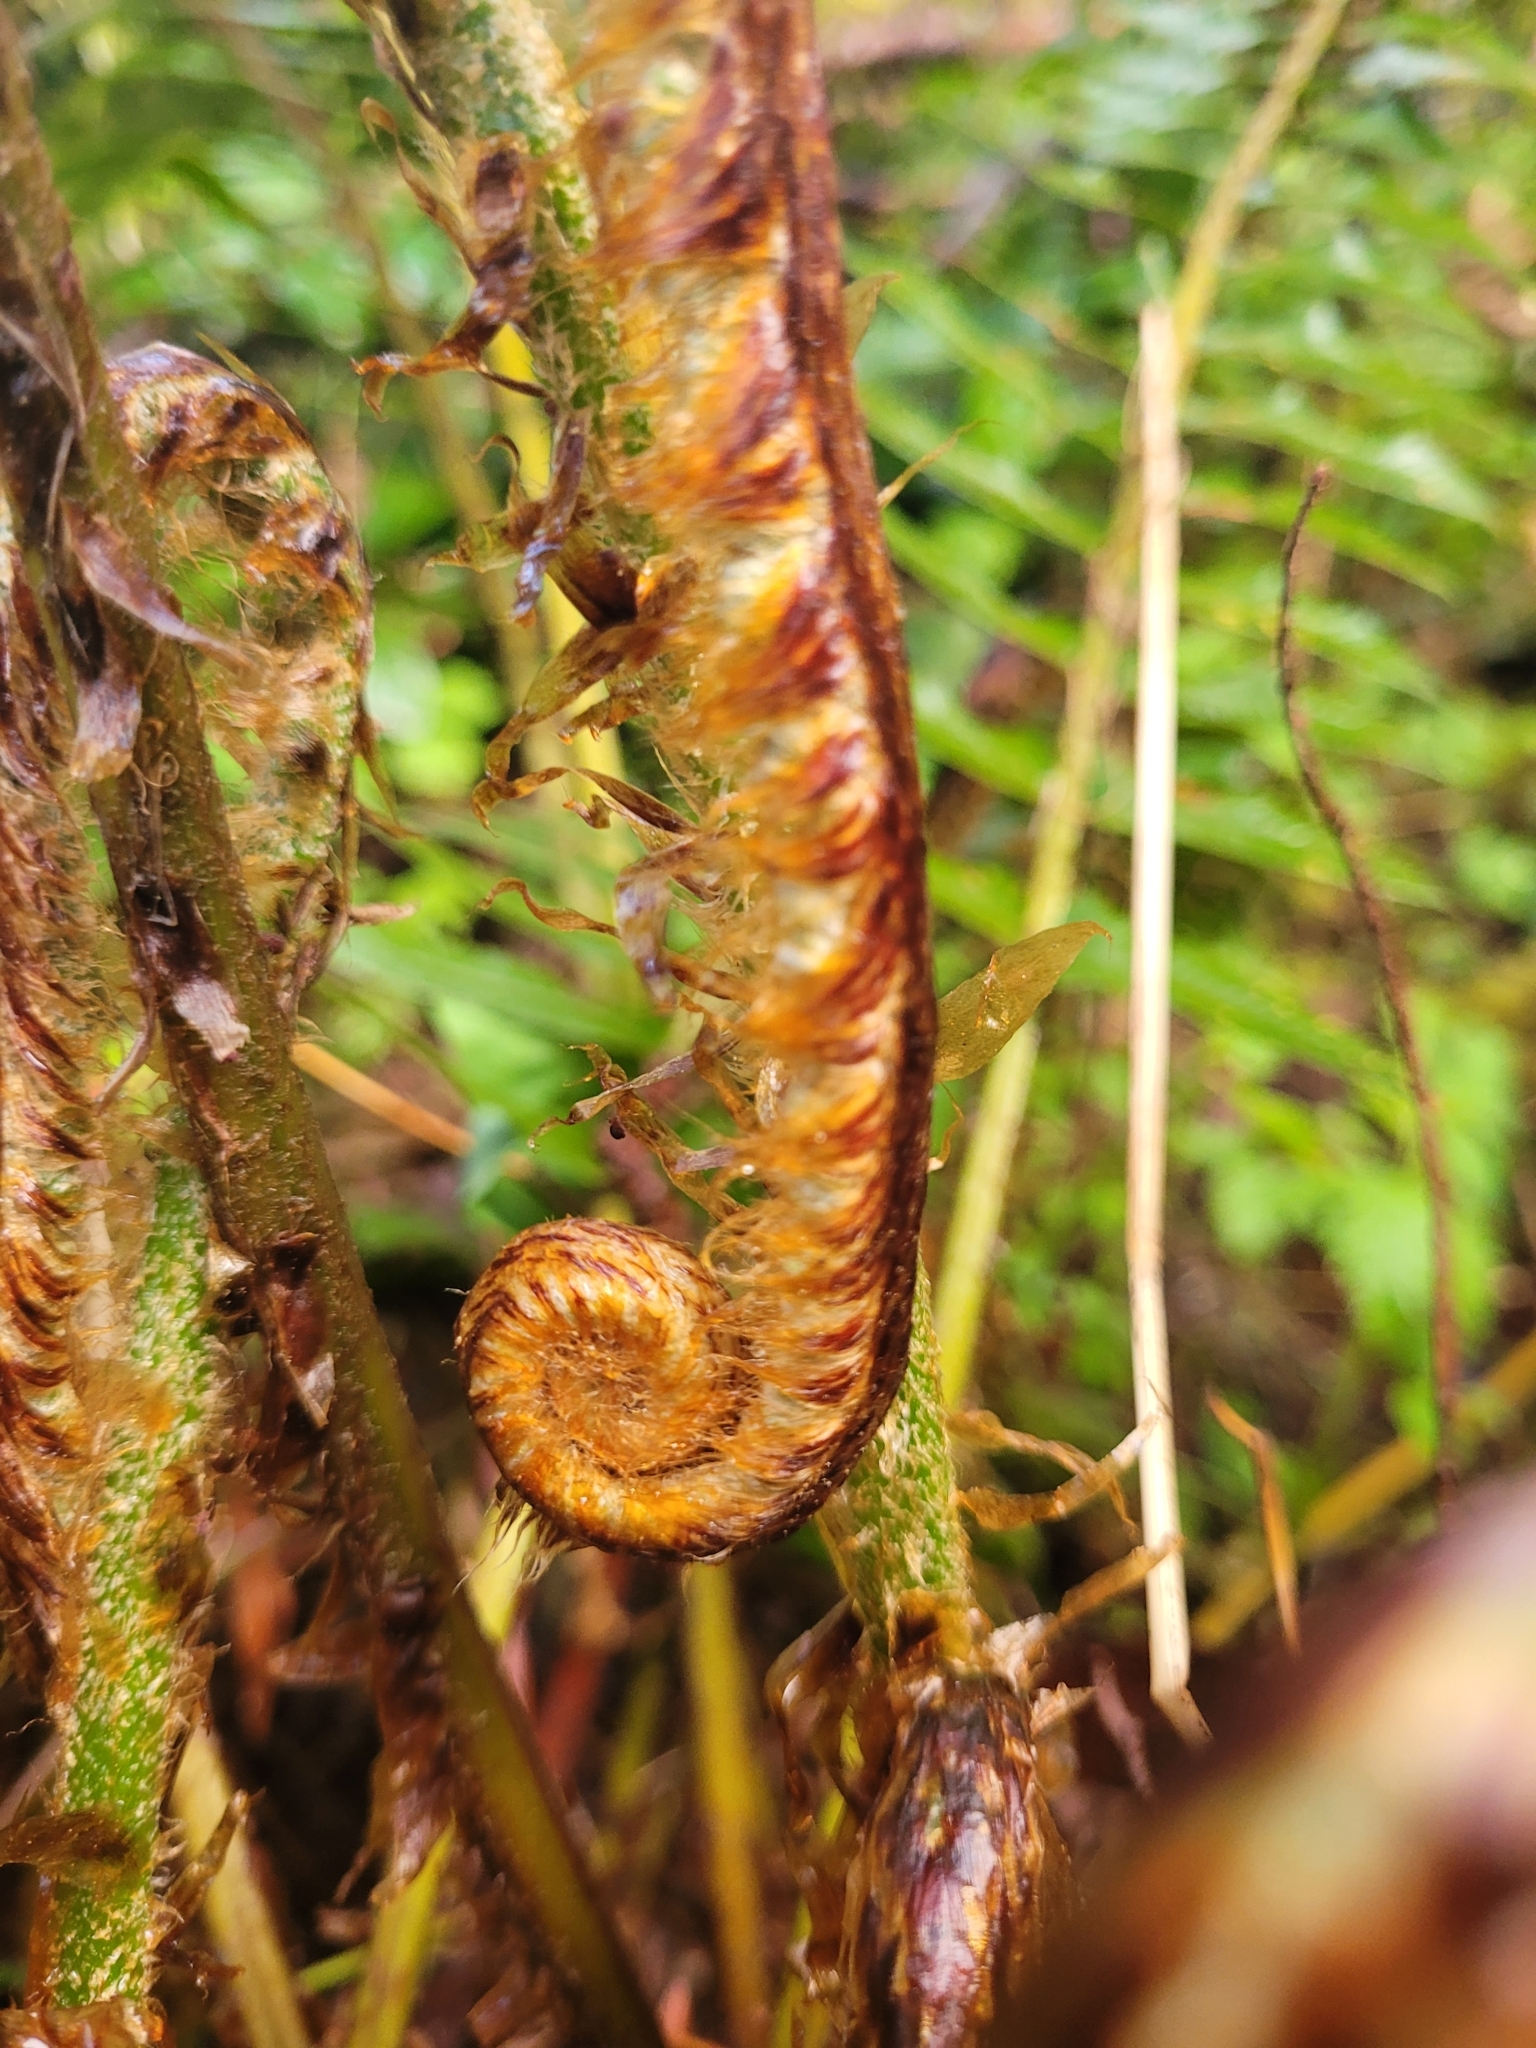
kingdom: Plantae
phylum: Tracheophyta
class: Polypodiopsida
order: Polypodiales
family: Dryopteridaceae
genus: Polystichum
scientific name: Polystichum munitum
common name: Western sword-fern
